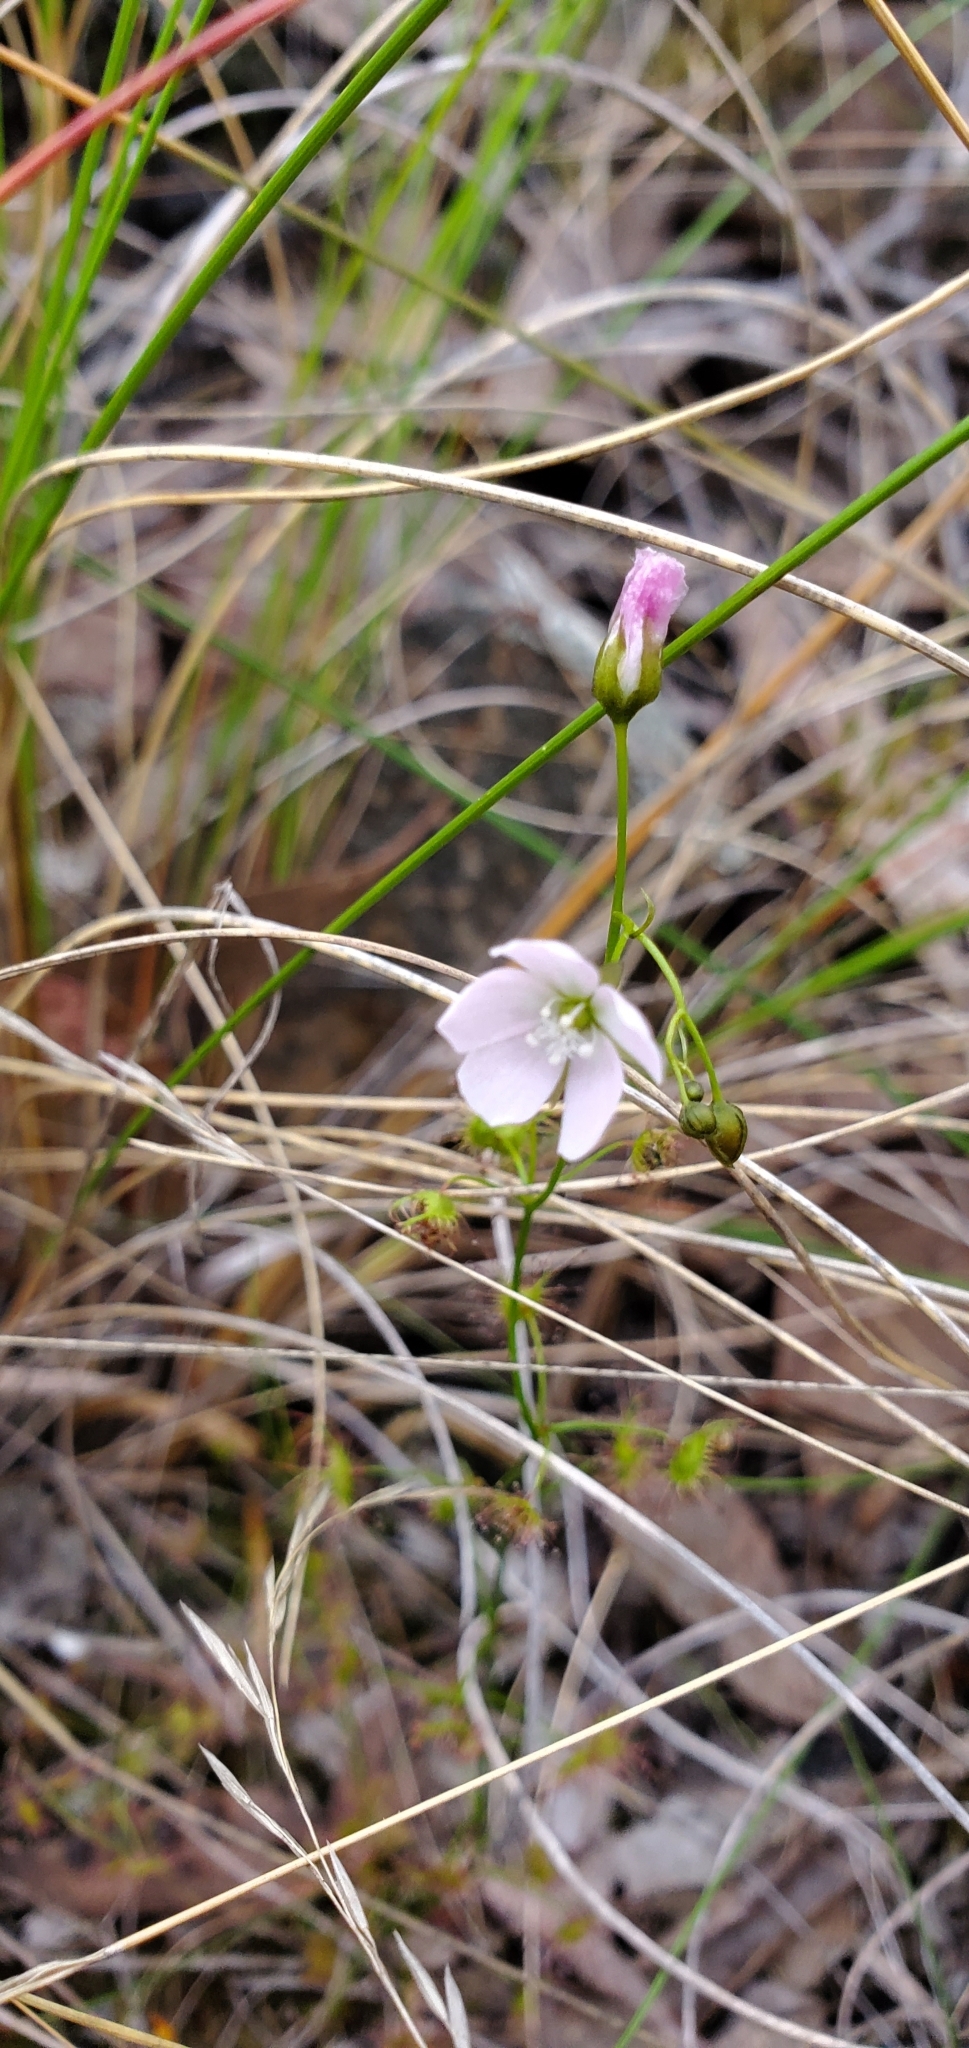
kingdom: Plantae
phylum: Tracheophyta
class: Magnoliopsida
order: Caryophyllales
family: Droseraceae
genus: Drosera
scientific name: Drosera peltata
